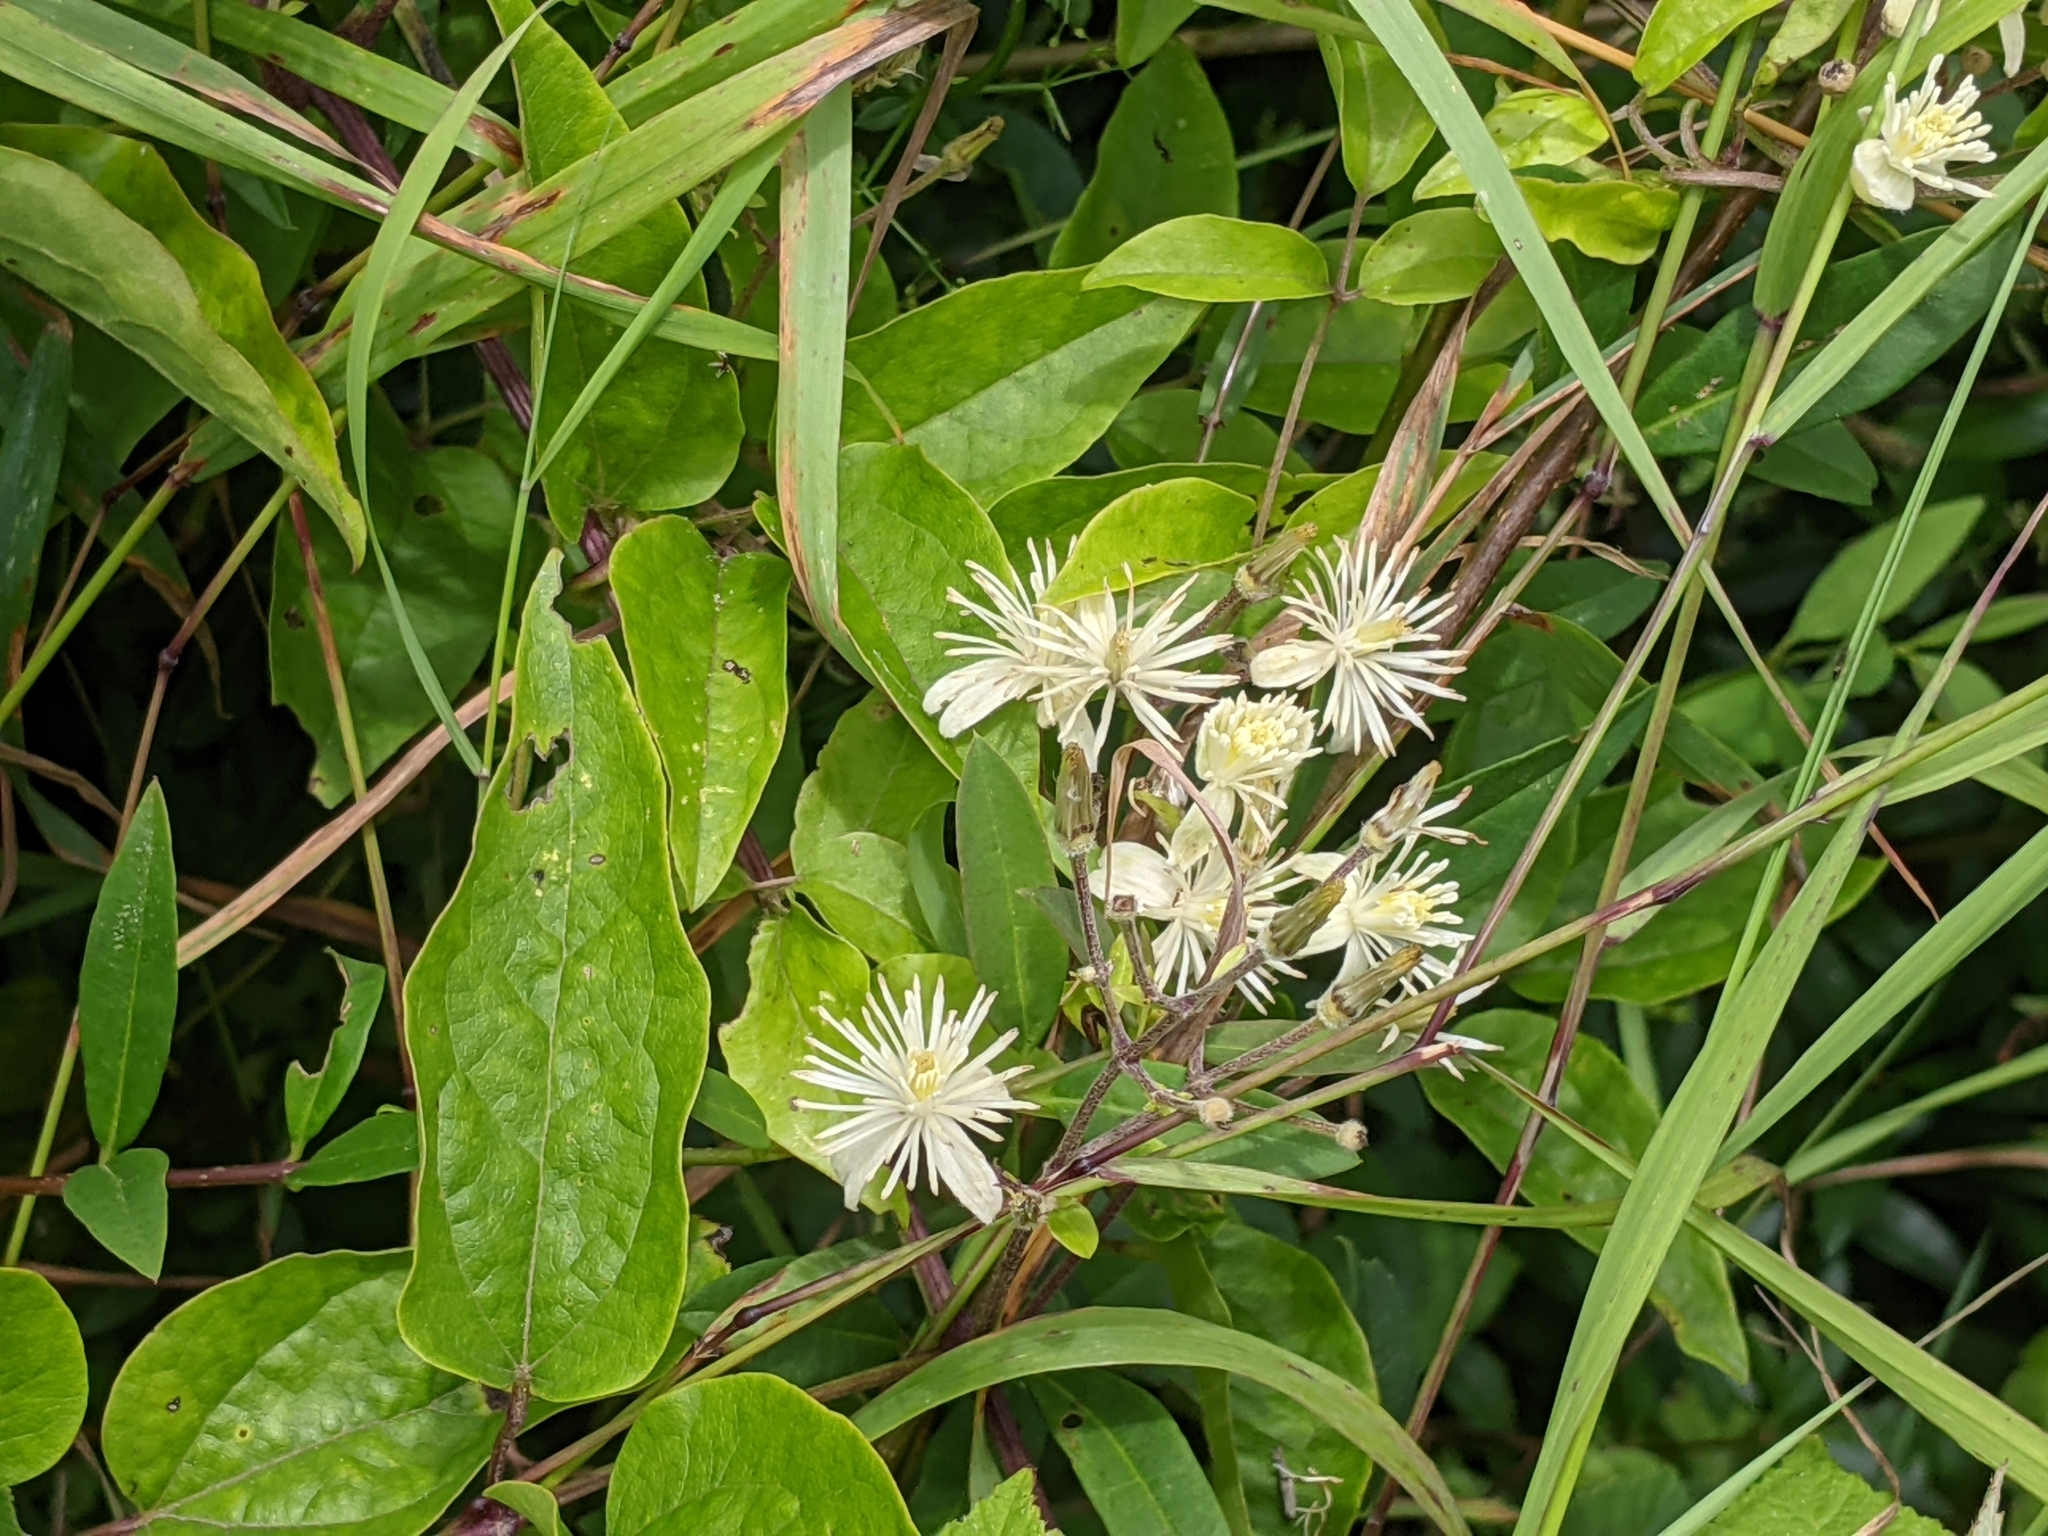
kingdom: Plantae
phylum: Tracheophyta
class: Magnoliopsida
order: Ranunculales
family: Ranunculaceae
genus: Clematis
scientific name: Clematis vitalba
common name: Evergreen clematis
